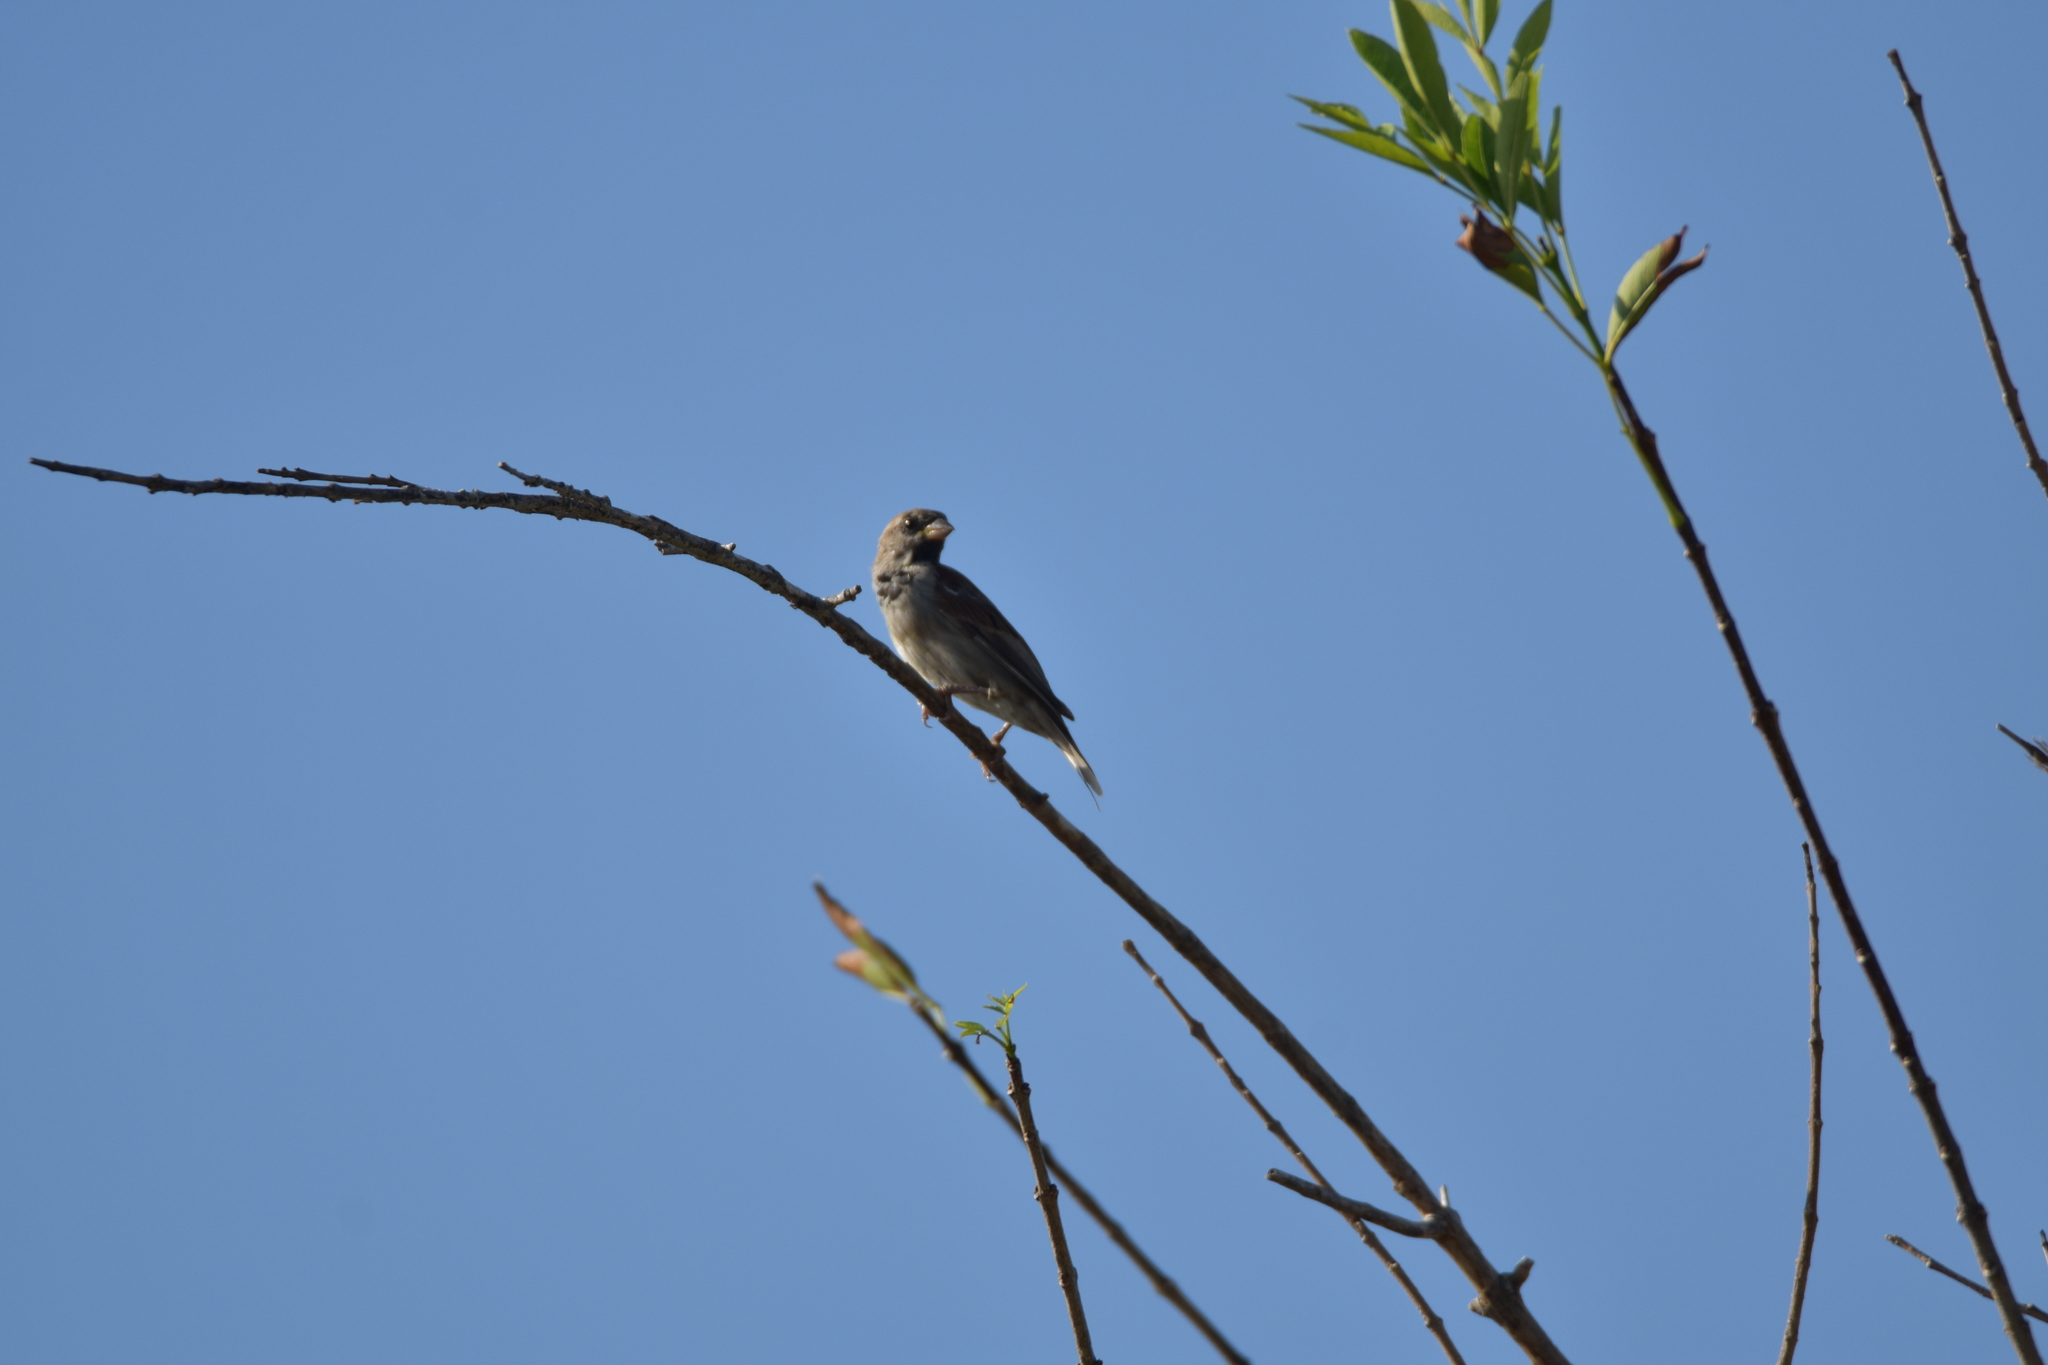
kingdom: Animalia
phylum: Chordata
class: Aves
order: Passeriformes
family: Passeridae
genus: Passer
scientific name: Passer domesticus
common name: House sparrow
